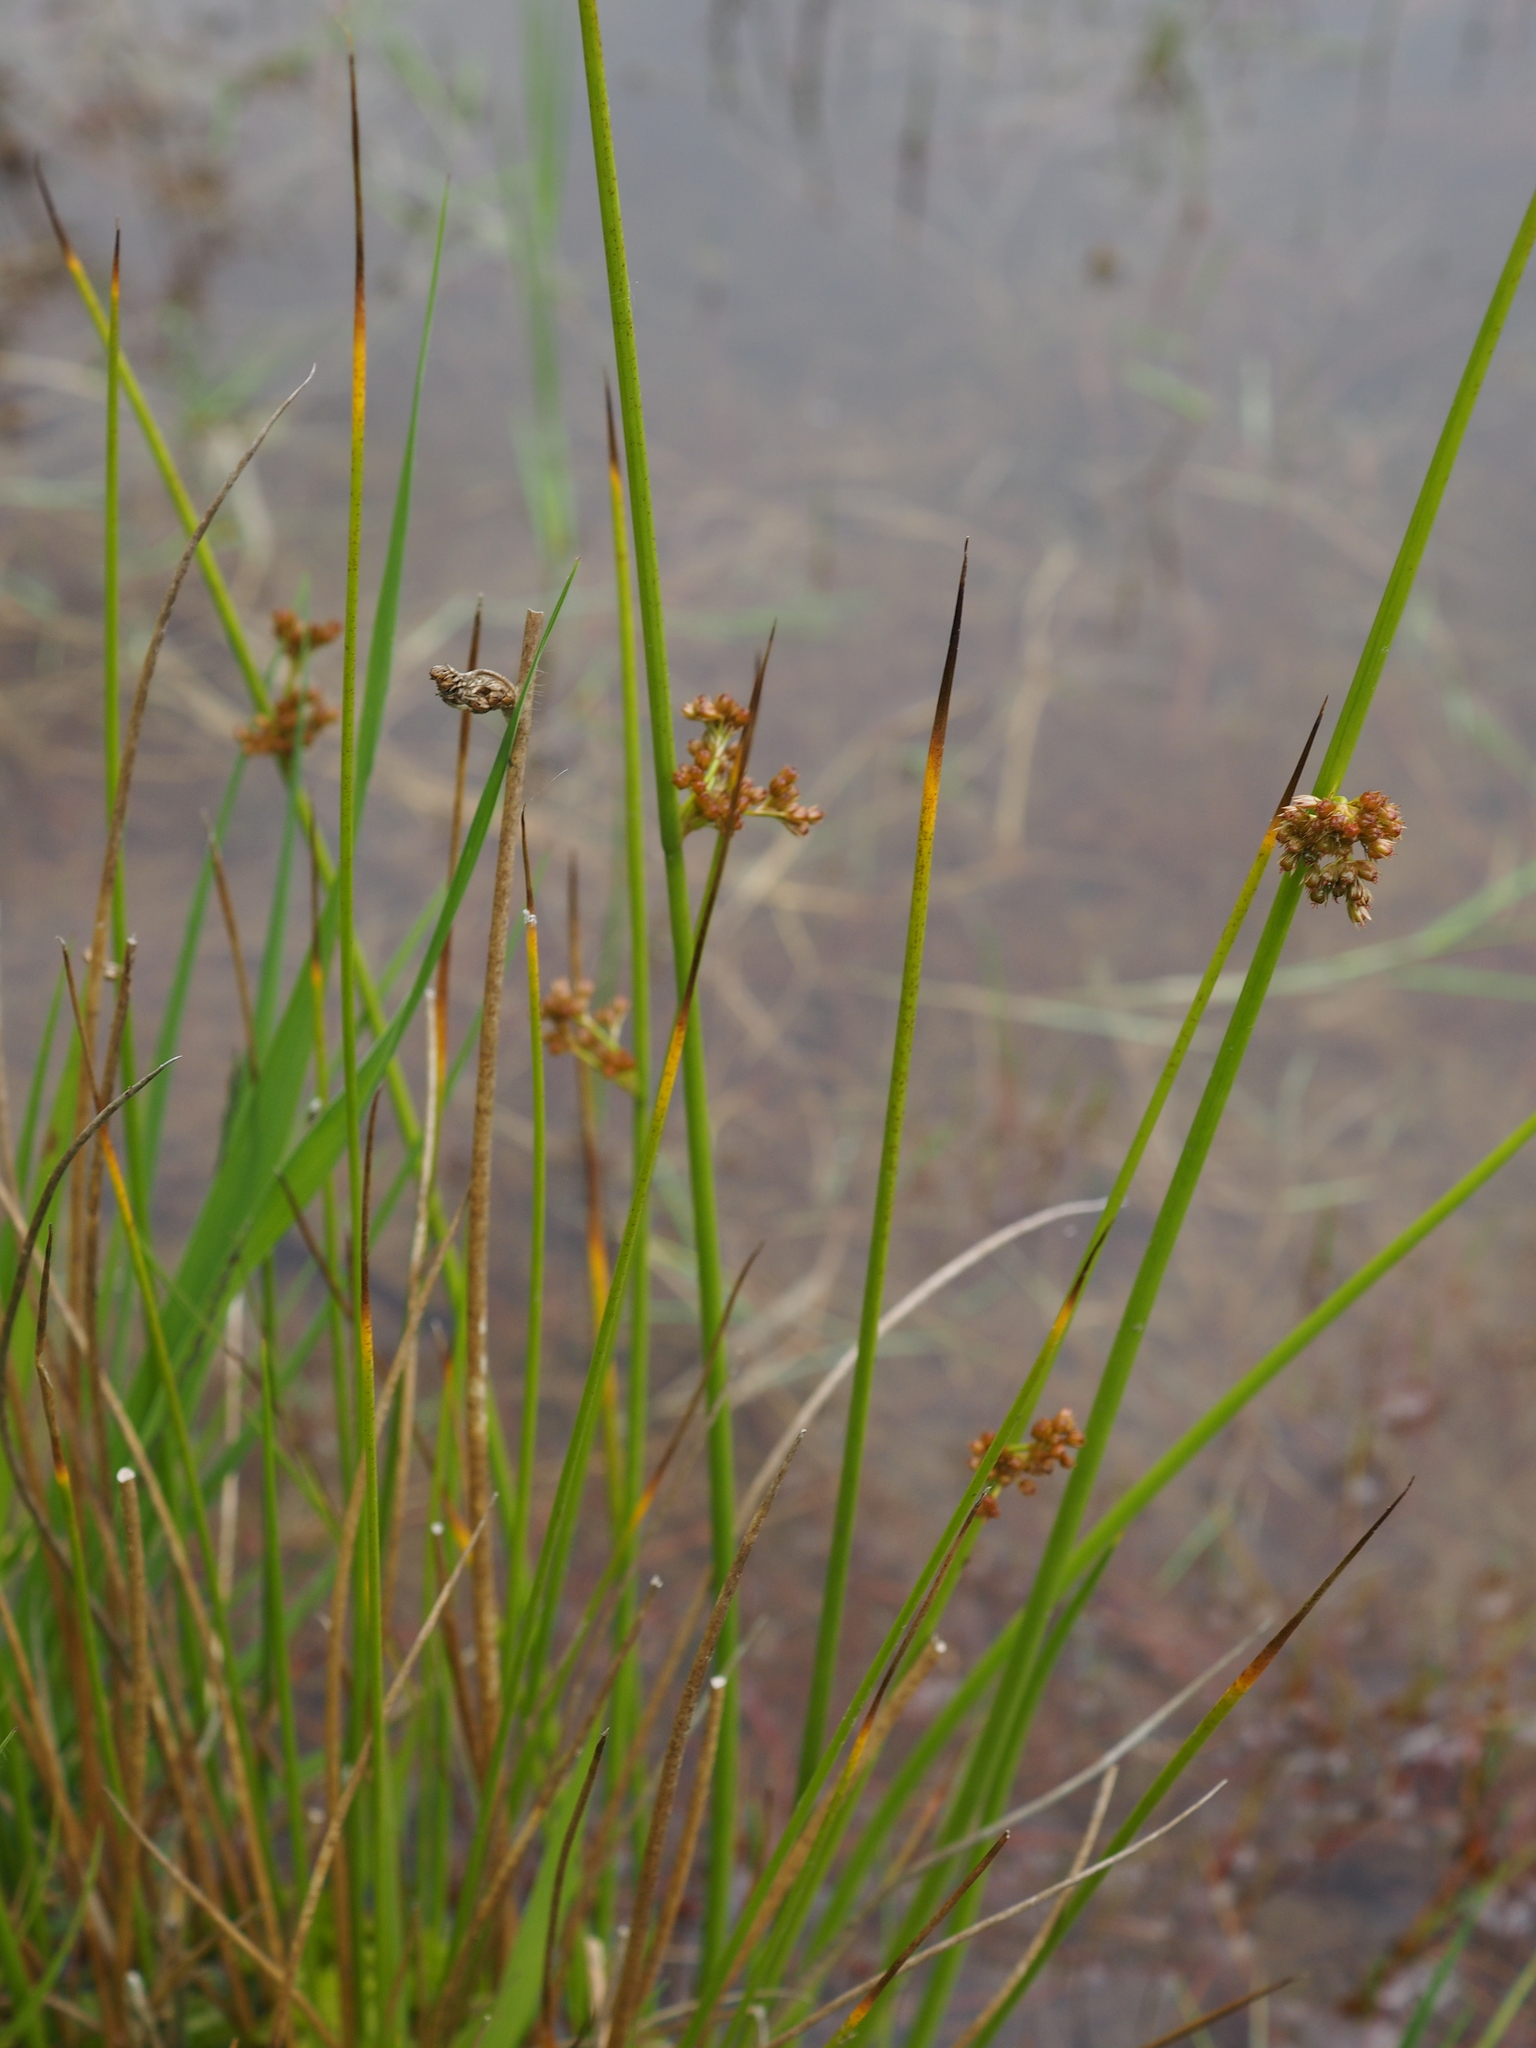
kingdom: Plantae
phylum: Tracheophyta
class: Liliopsida
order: Poales
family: Juncaceae
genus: Juncus
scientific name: Juncus effusus
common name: Soft rush
